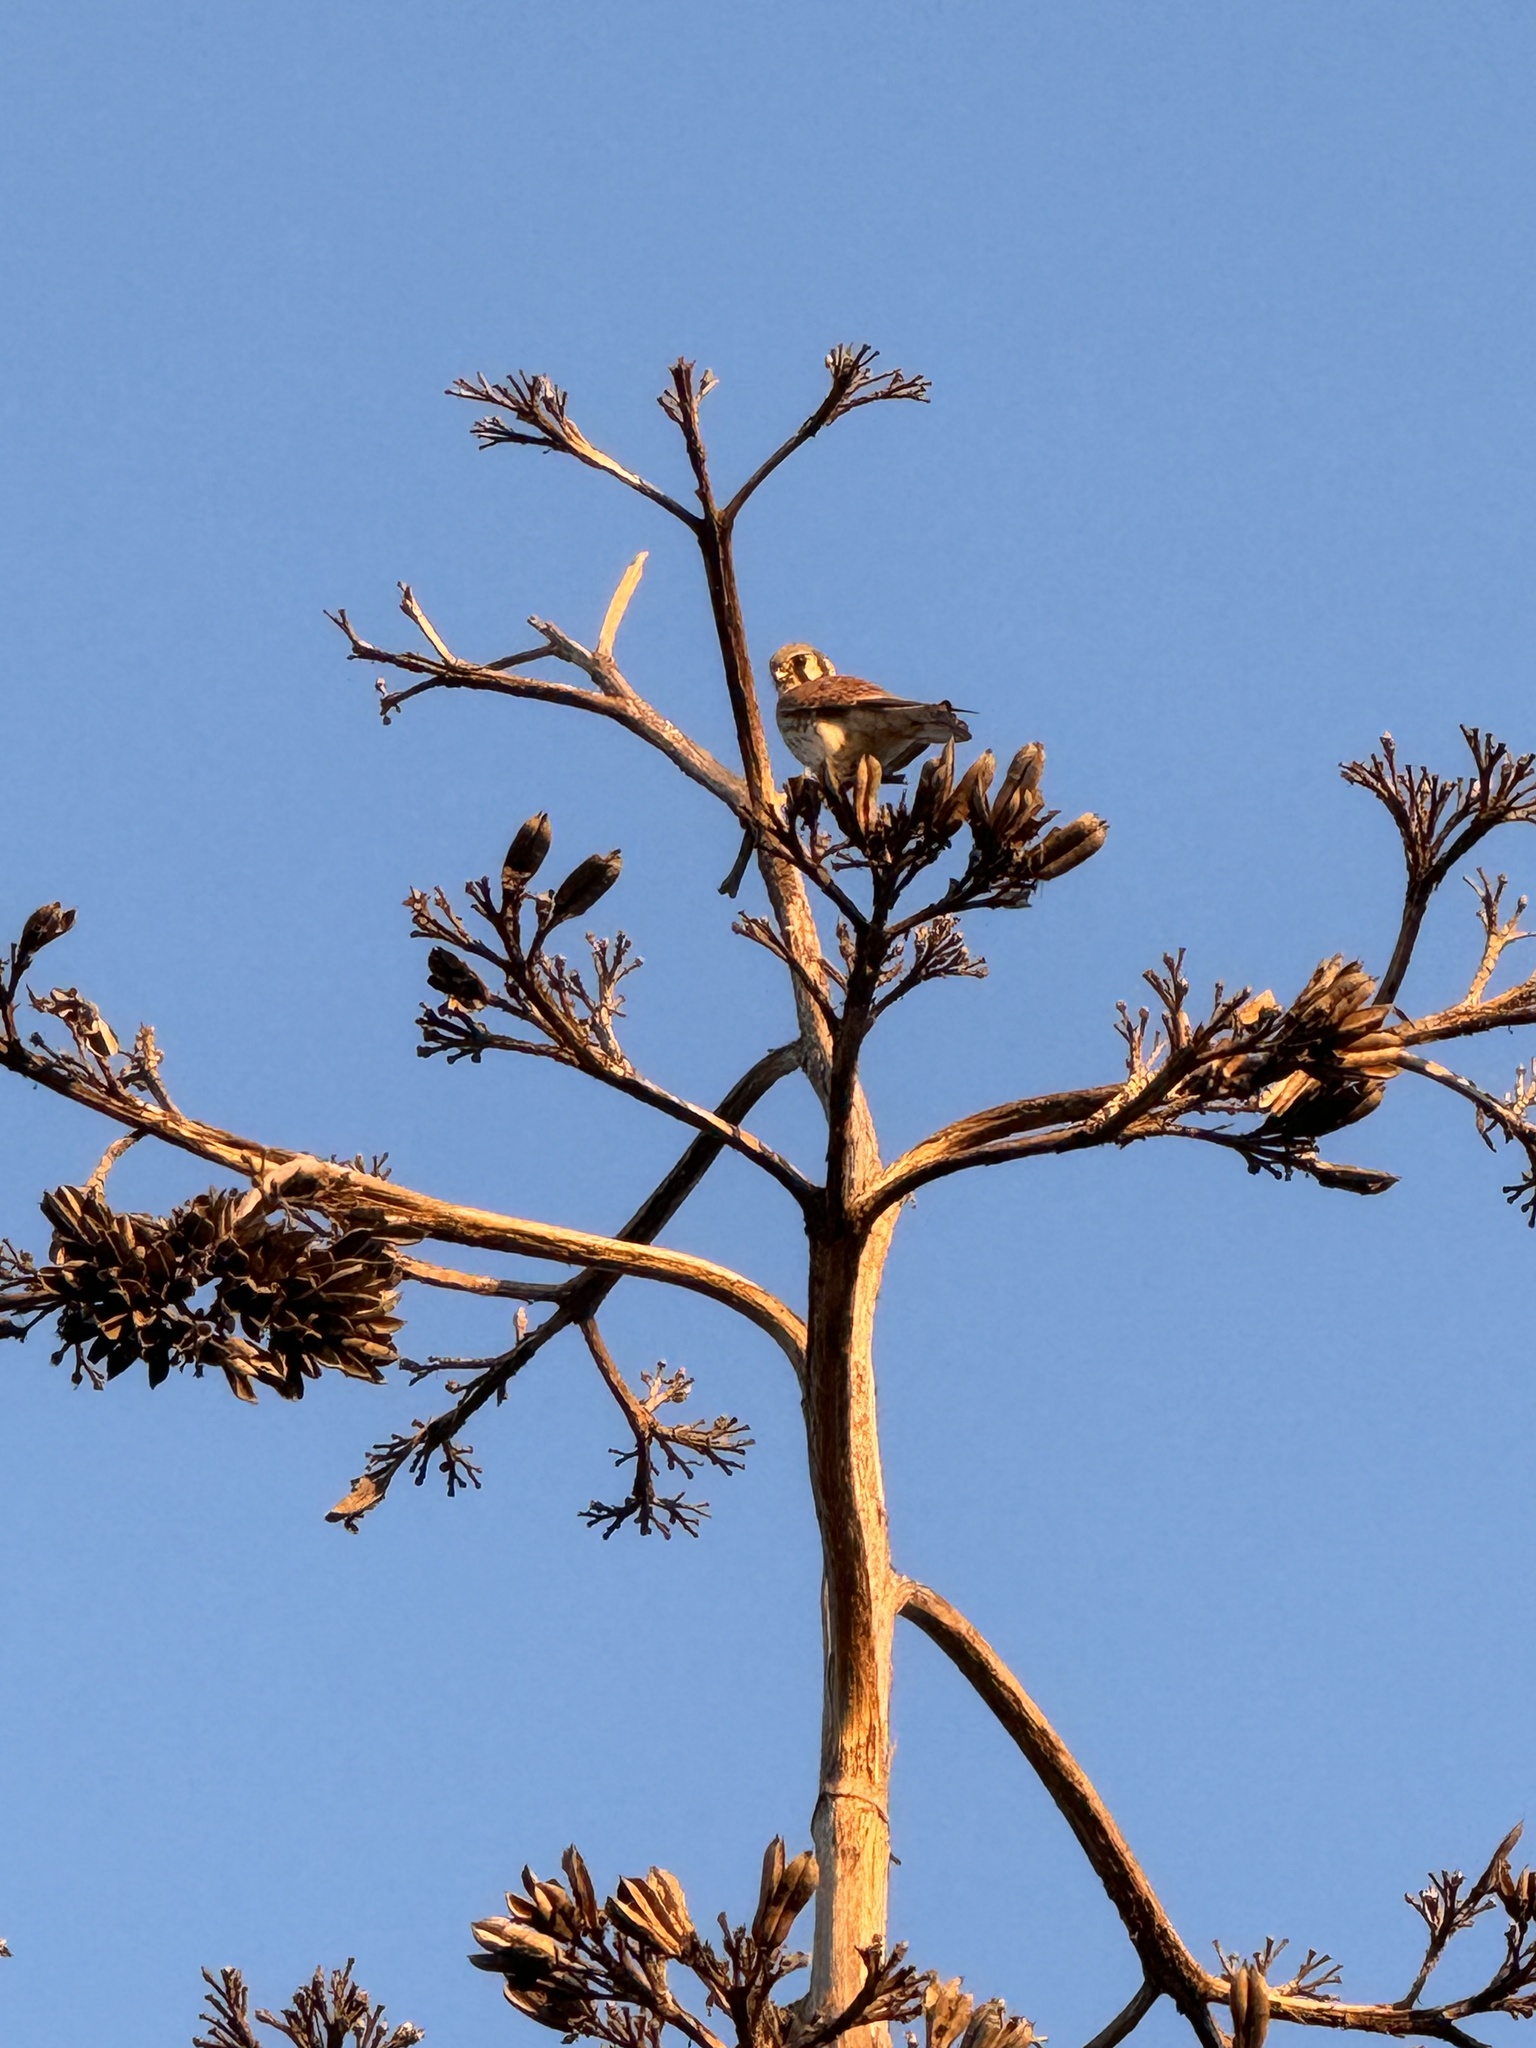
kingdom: Animalia
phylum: Chordata
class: Aves
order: Falconiformes
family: Falconidae
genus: Falco
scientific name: Falco sparverius
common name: American kestrel
